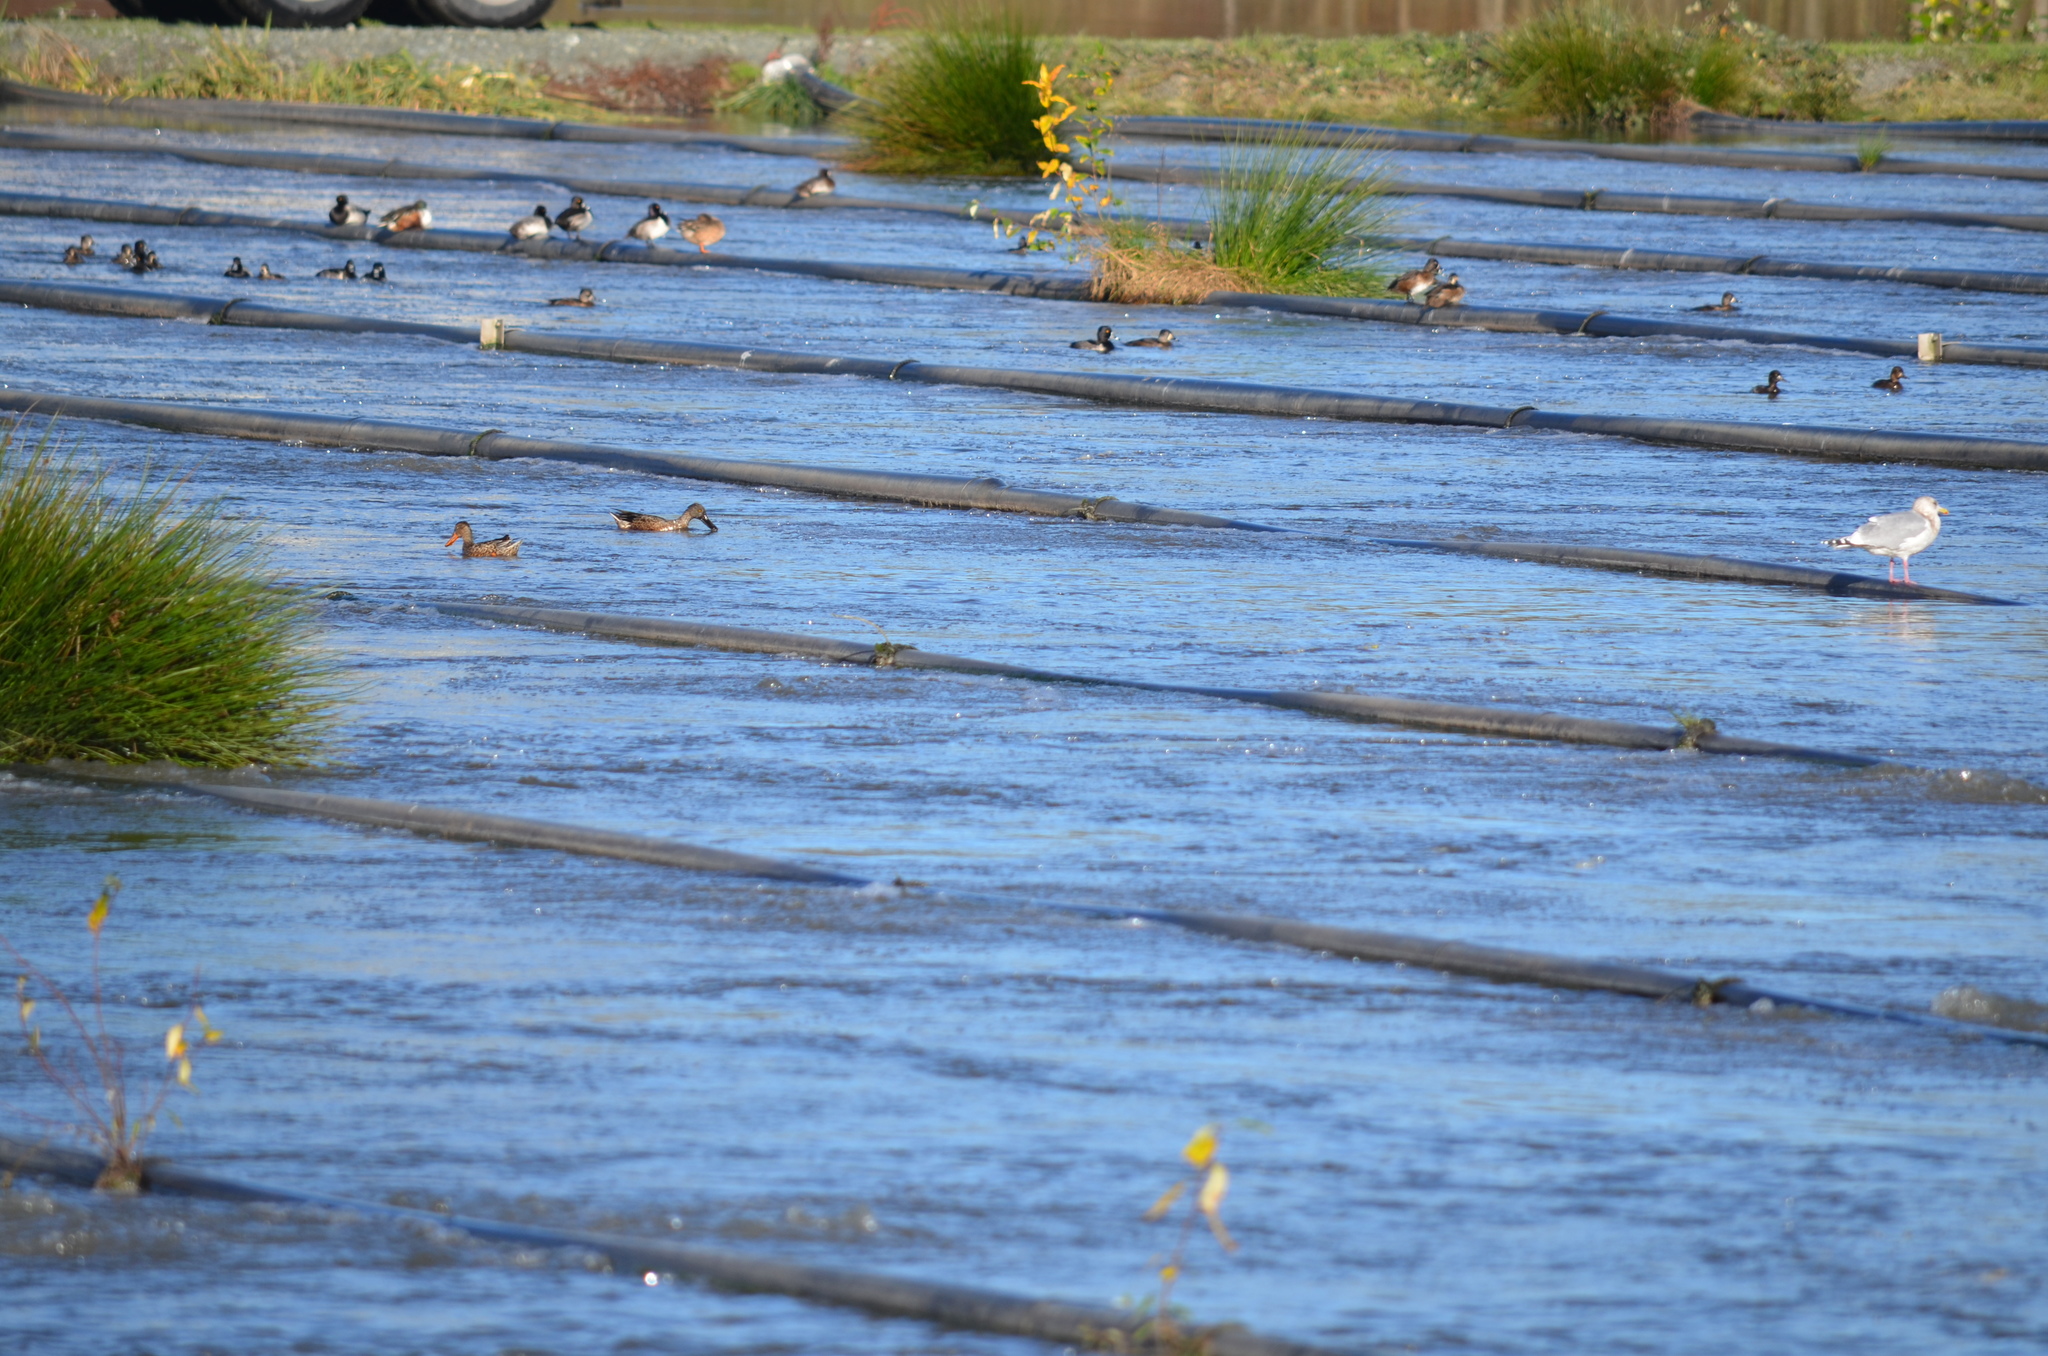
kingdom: Animalia
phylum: Chordata
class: Aves
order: Anseriformes
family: Anatidae
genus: Spatula
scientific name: Spatula clypeata
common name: Northern shoveler
